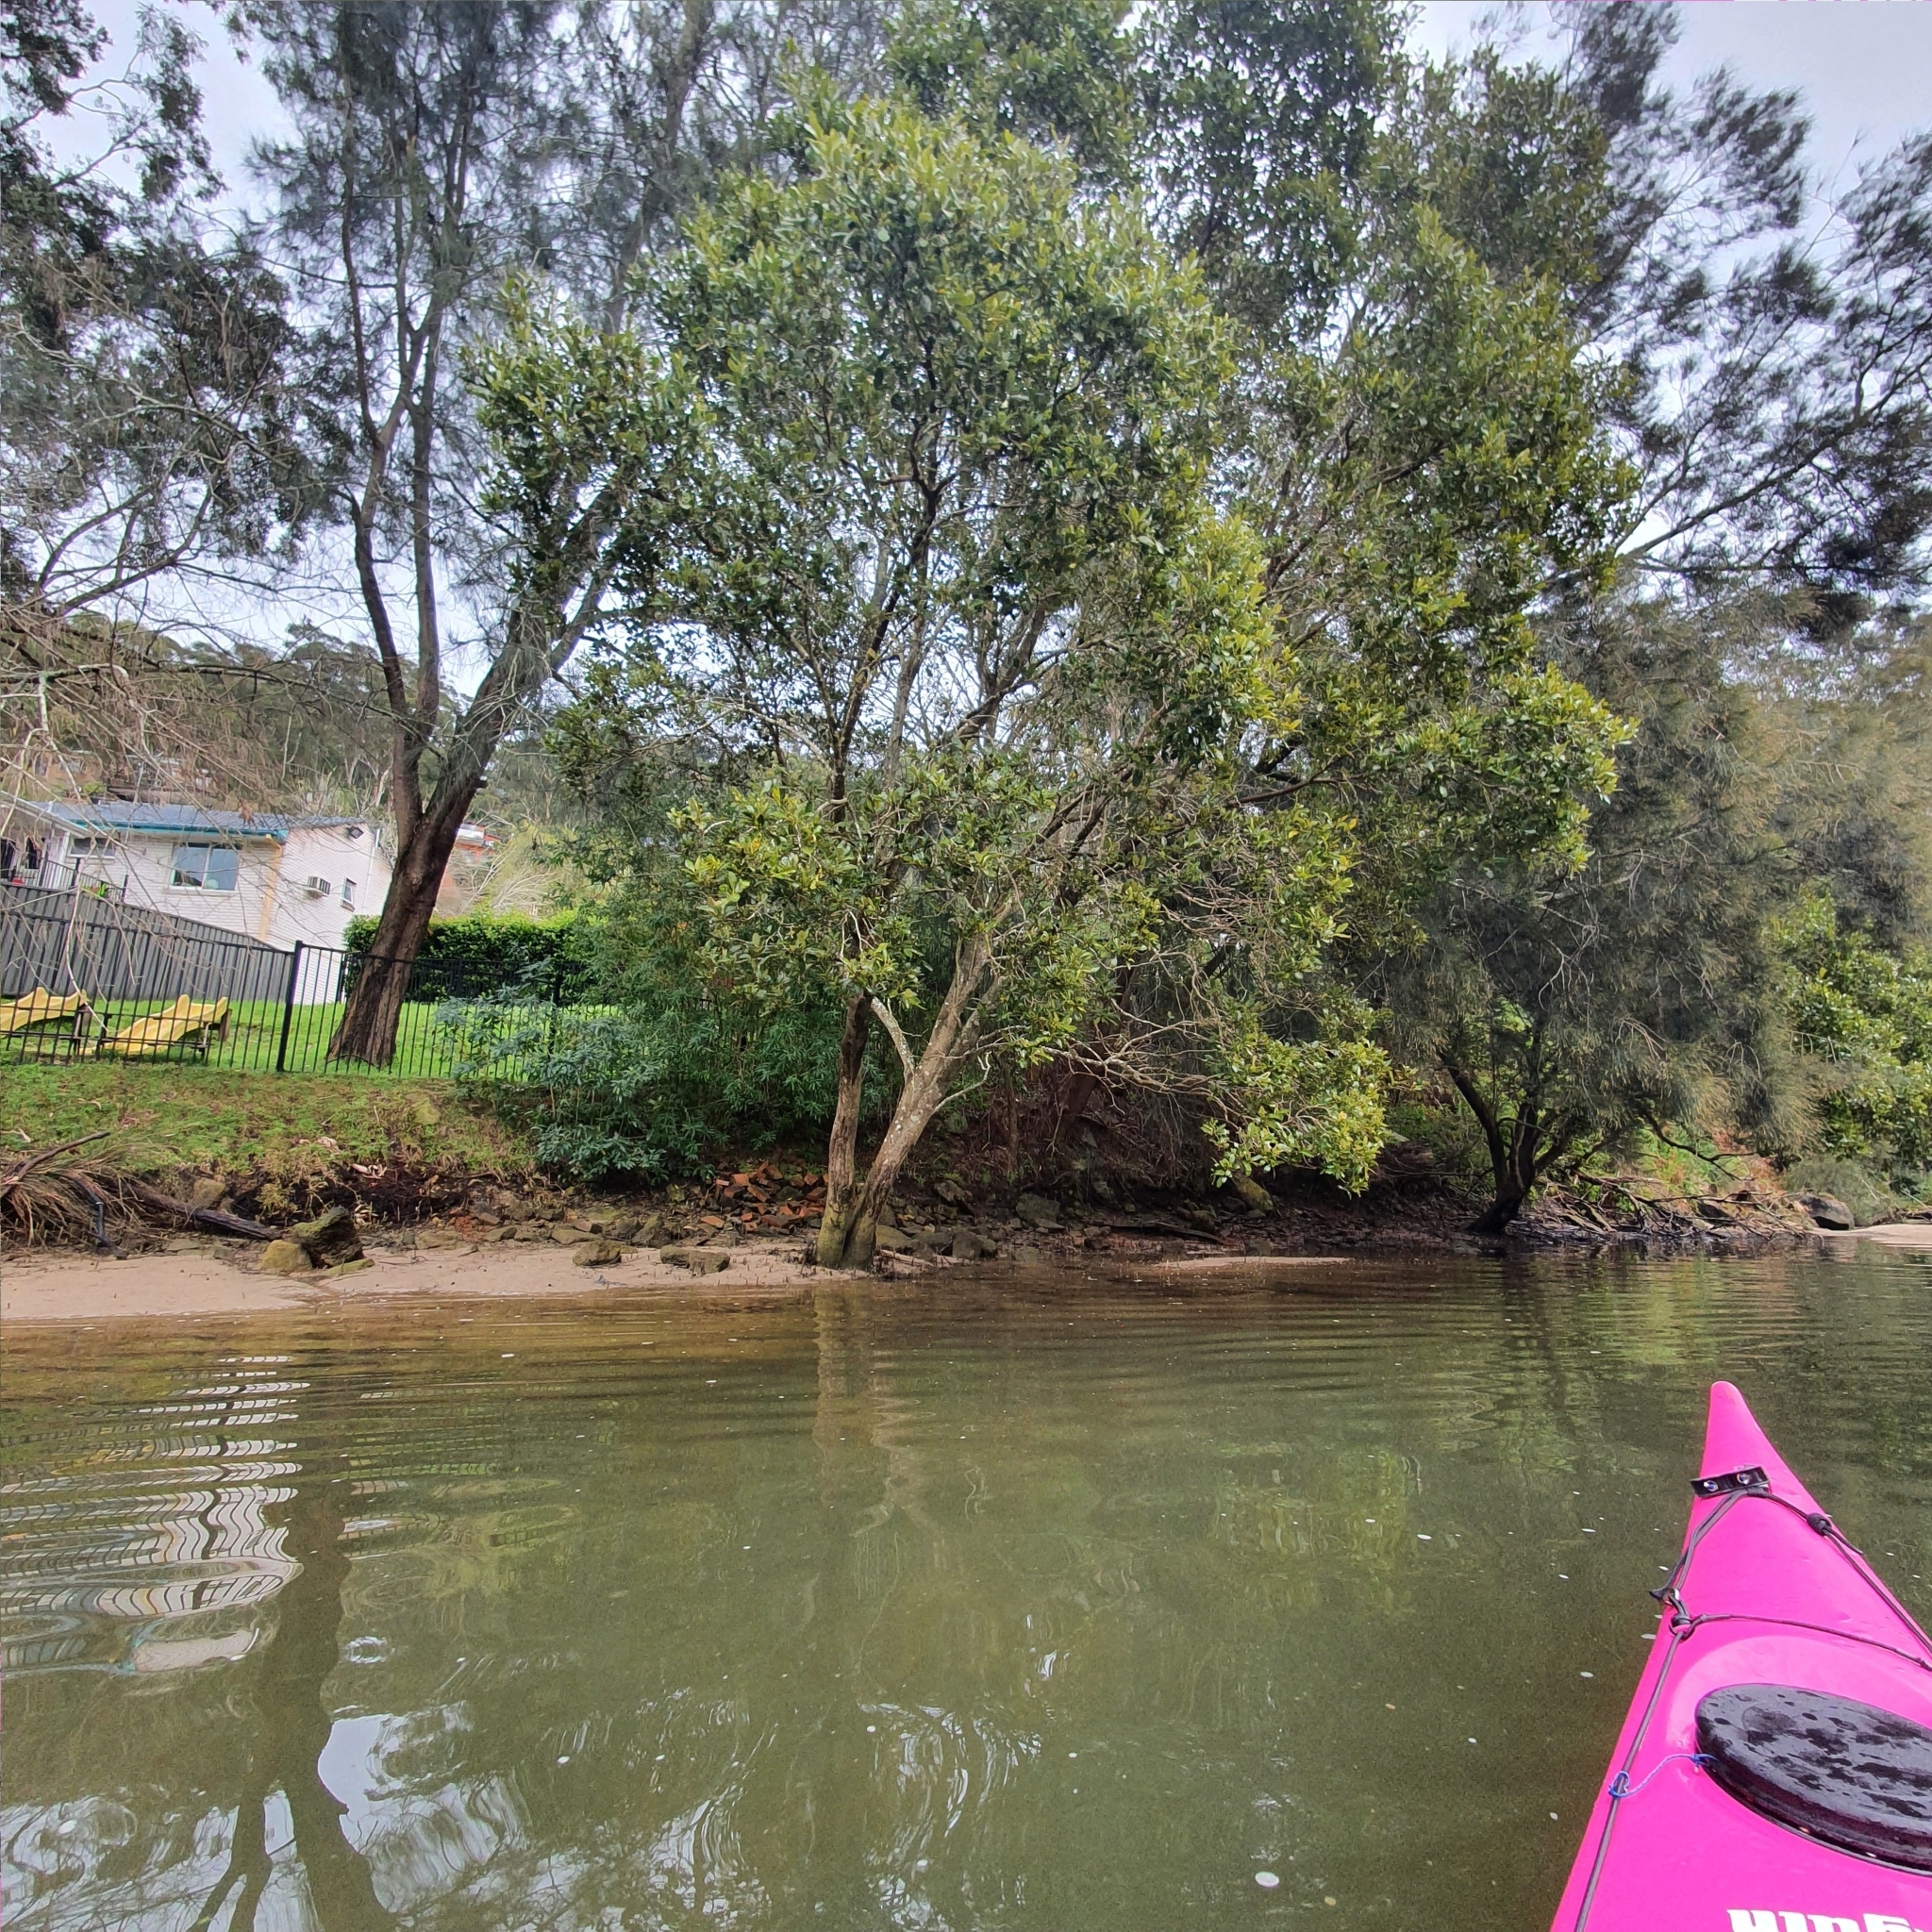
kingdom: Plantae
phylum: Tracheophyta
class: Magnoliopsida
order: Lamiales
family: Acanthaceae
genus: Avicennia
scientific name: Avicennia marina
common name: Gray mangrove
